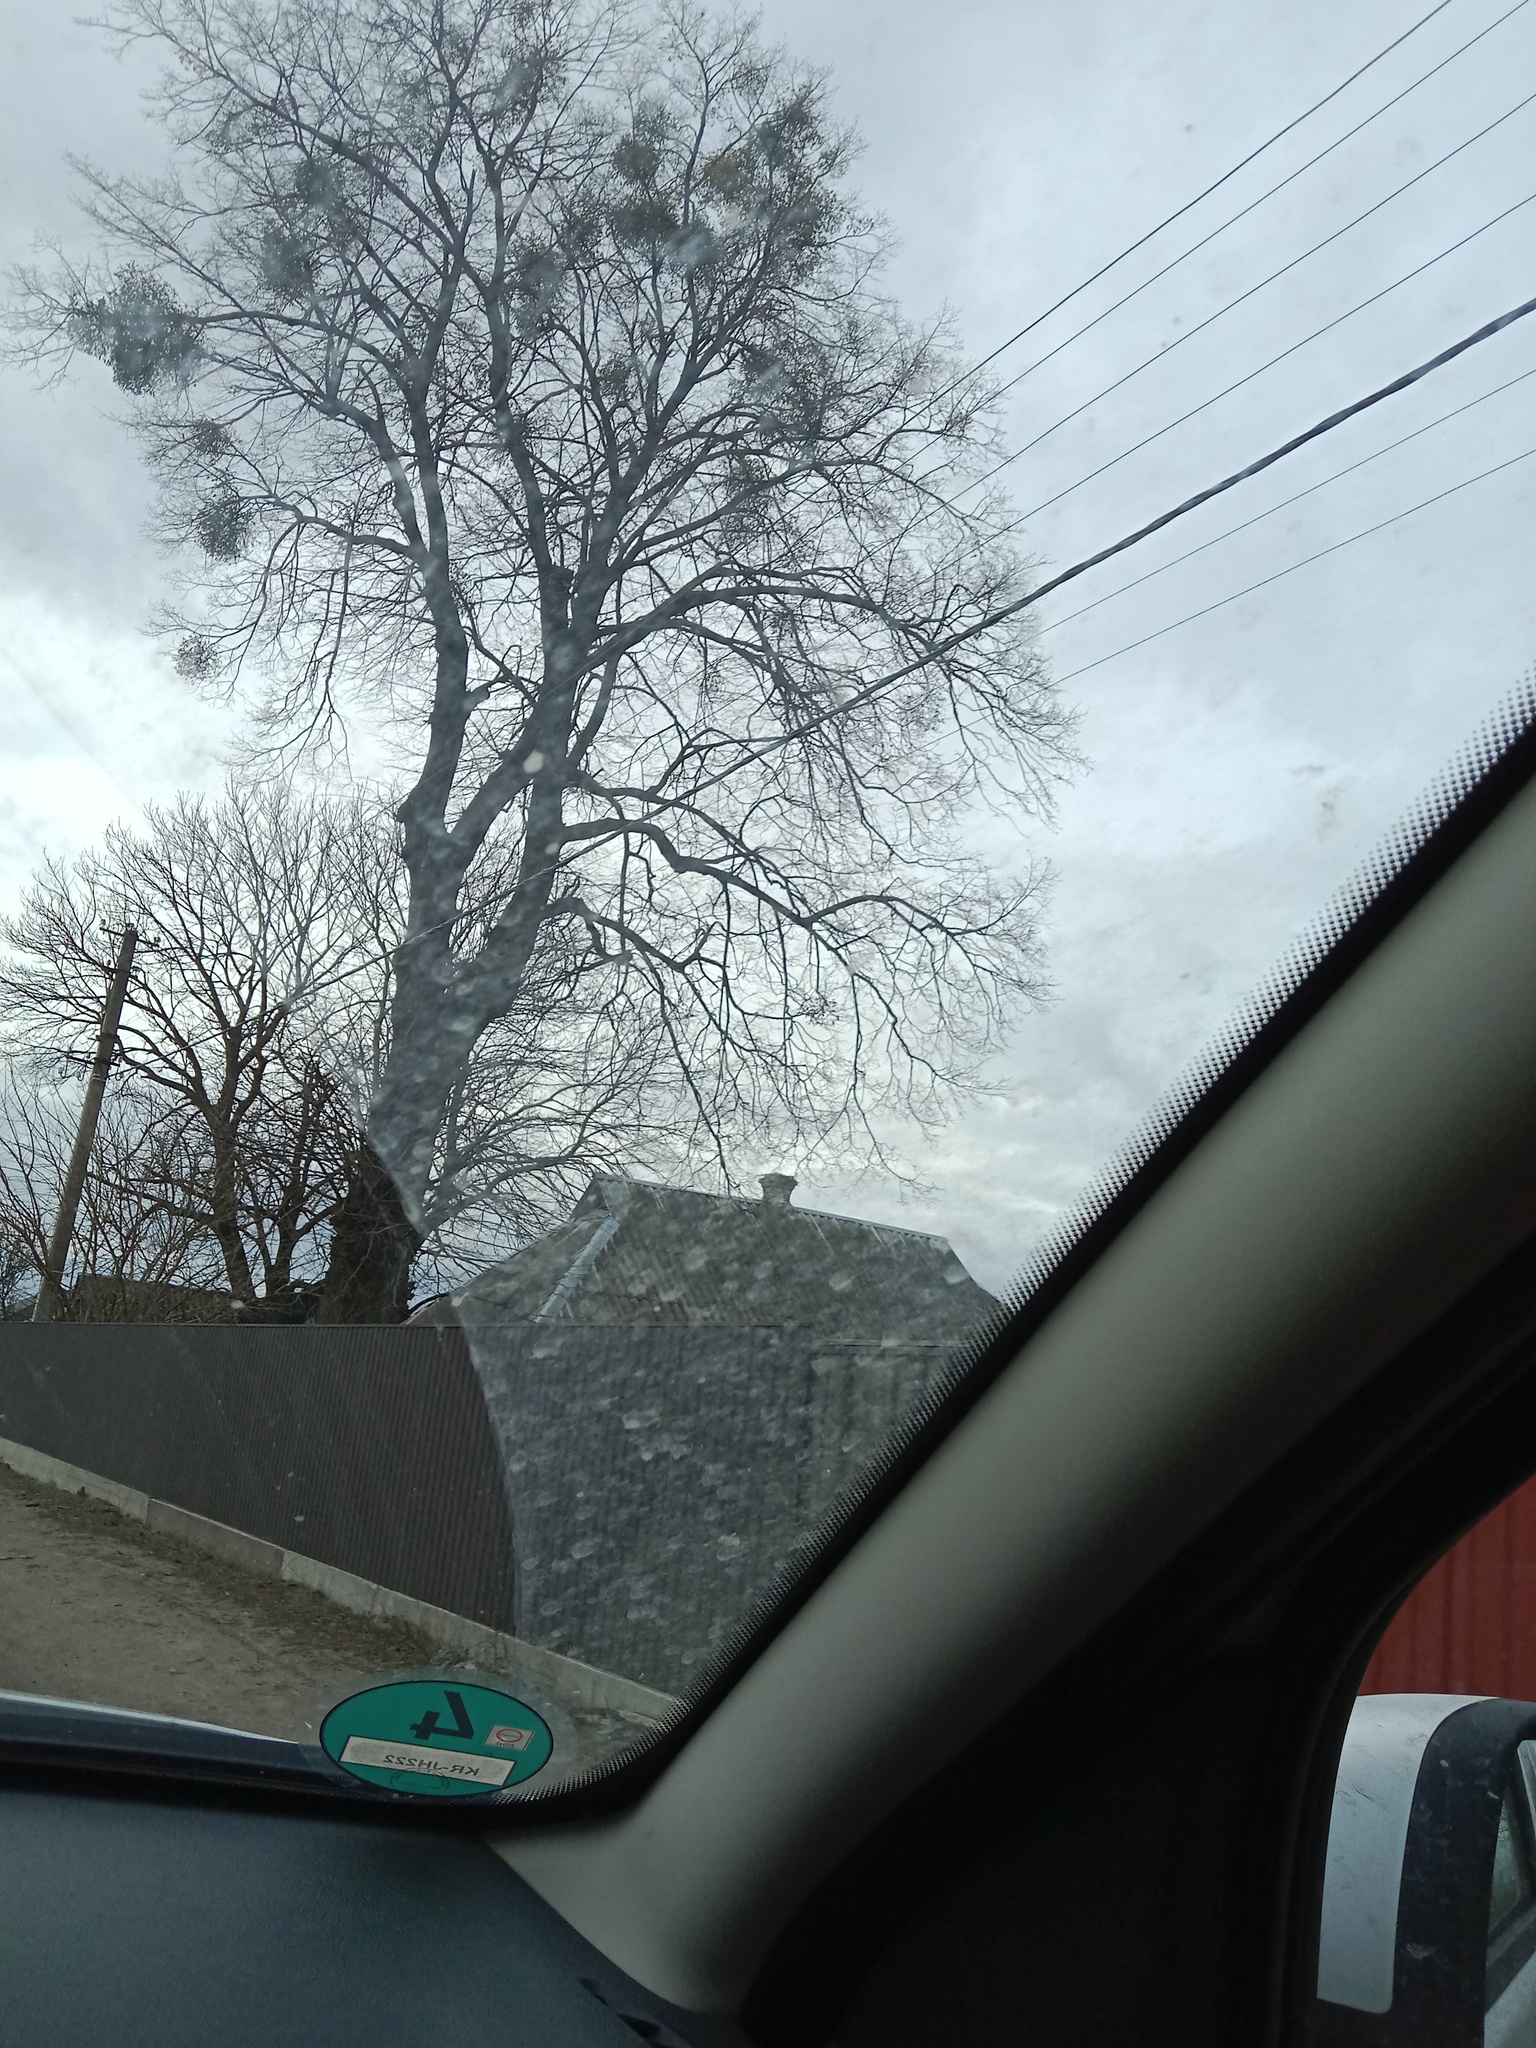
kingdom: Plantae
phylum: Tracheophyta
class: Magnoliopsida
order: Santalales
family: Viscaceae
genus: Viscum
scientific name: Viscum album
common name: Mistletoe
